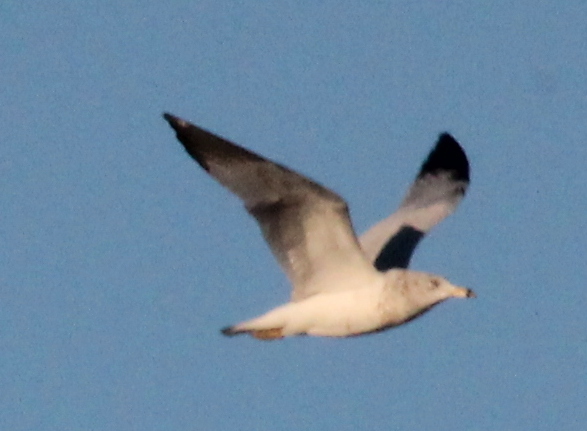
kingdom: Animalia
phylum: Chordata
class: Aves
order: Charadriiformes
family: Laridae
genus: Larus
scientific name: Larus delawarensis
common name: Ring-billed gull
